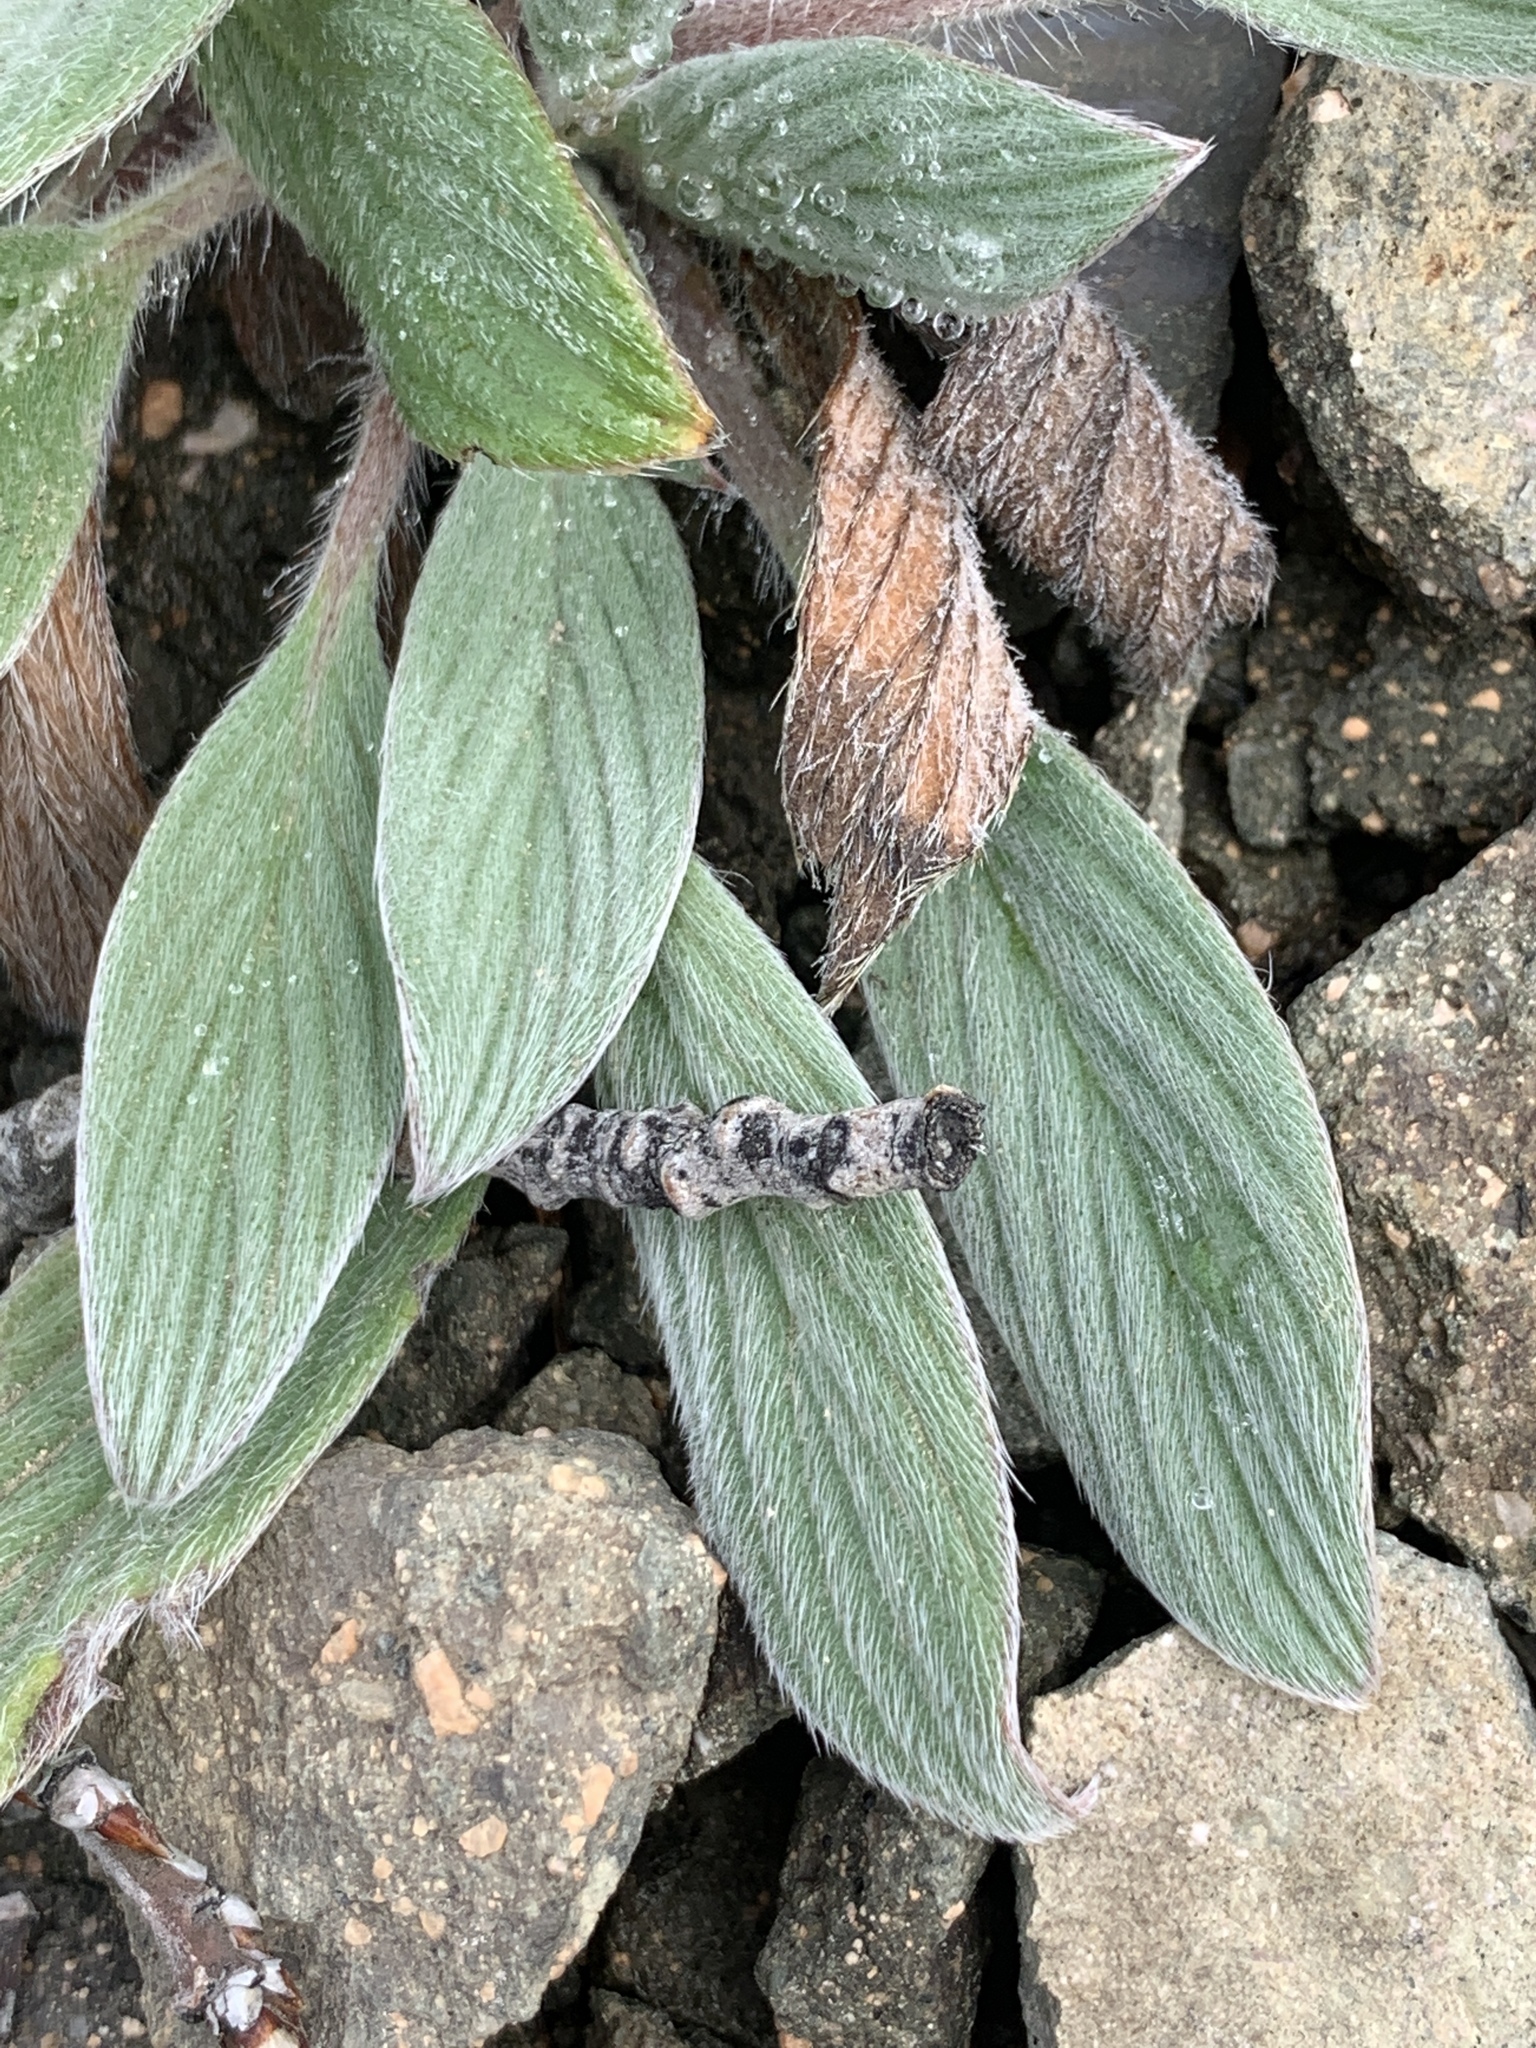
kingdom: Plantae
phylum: Tracheophyta
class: Magnoliopsida
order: Boraginales
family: Hydrophyllaceae
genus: Phacelia
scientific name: Phacelia hastata
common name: Silver-leaved phacelia
